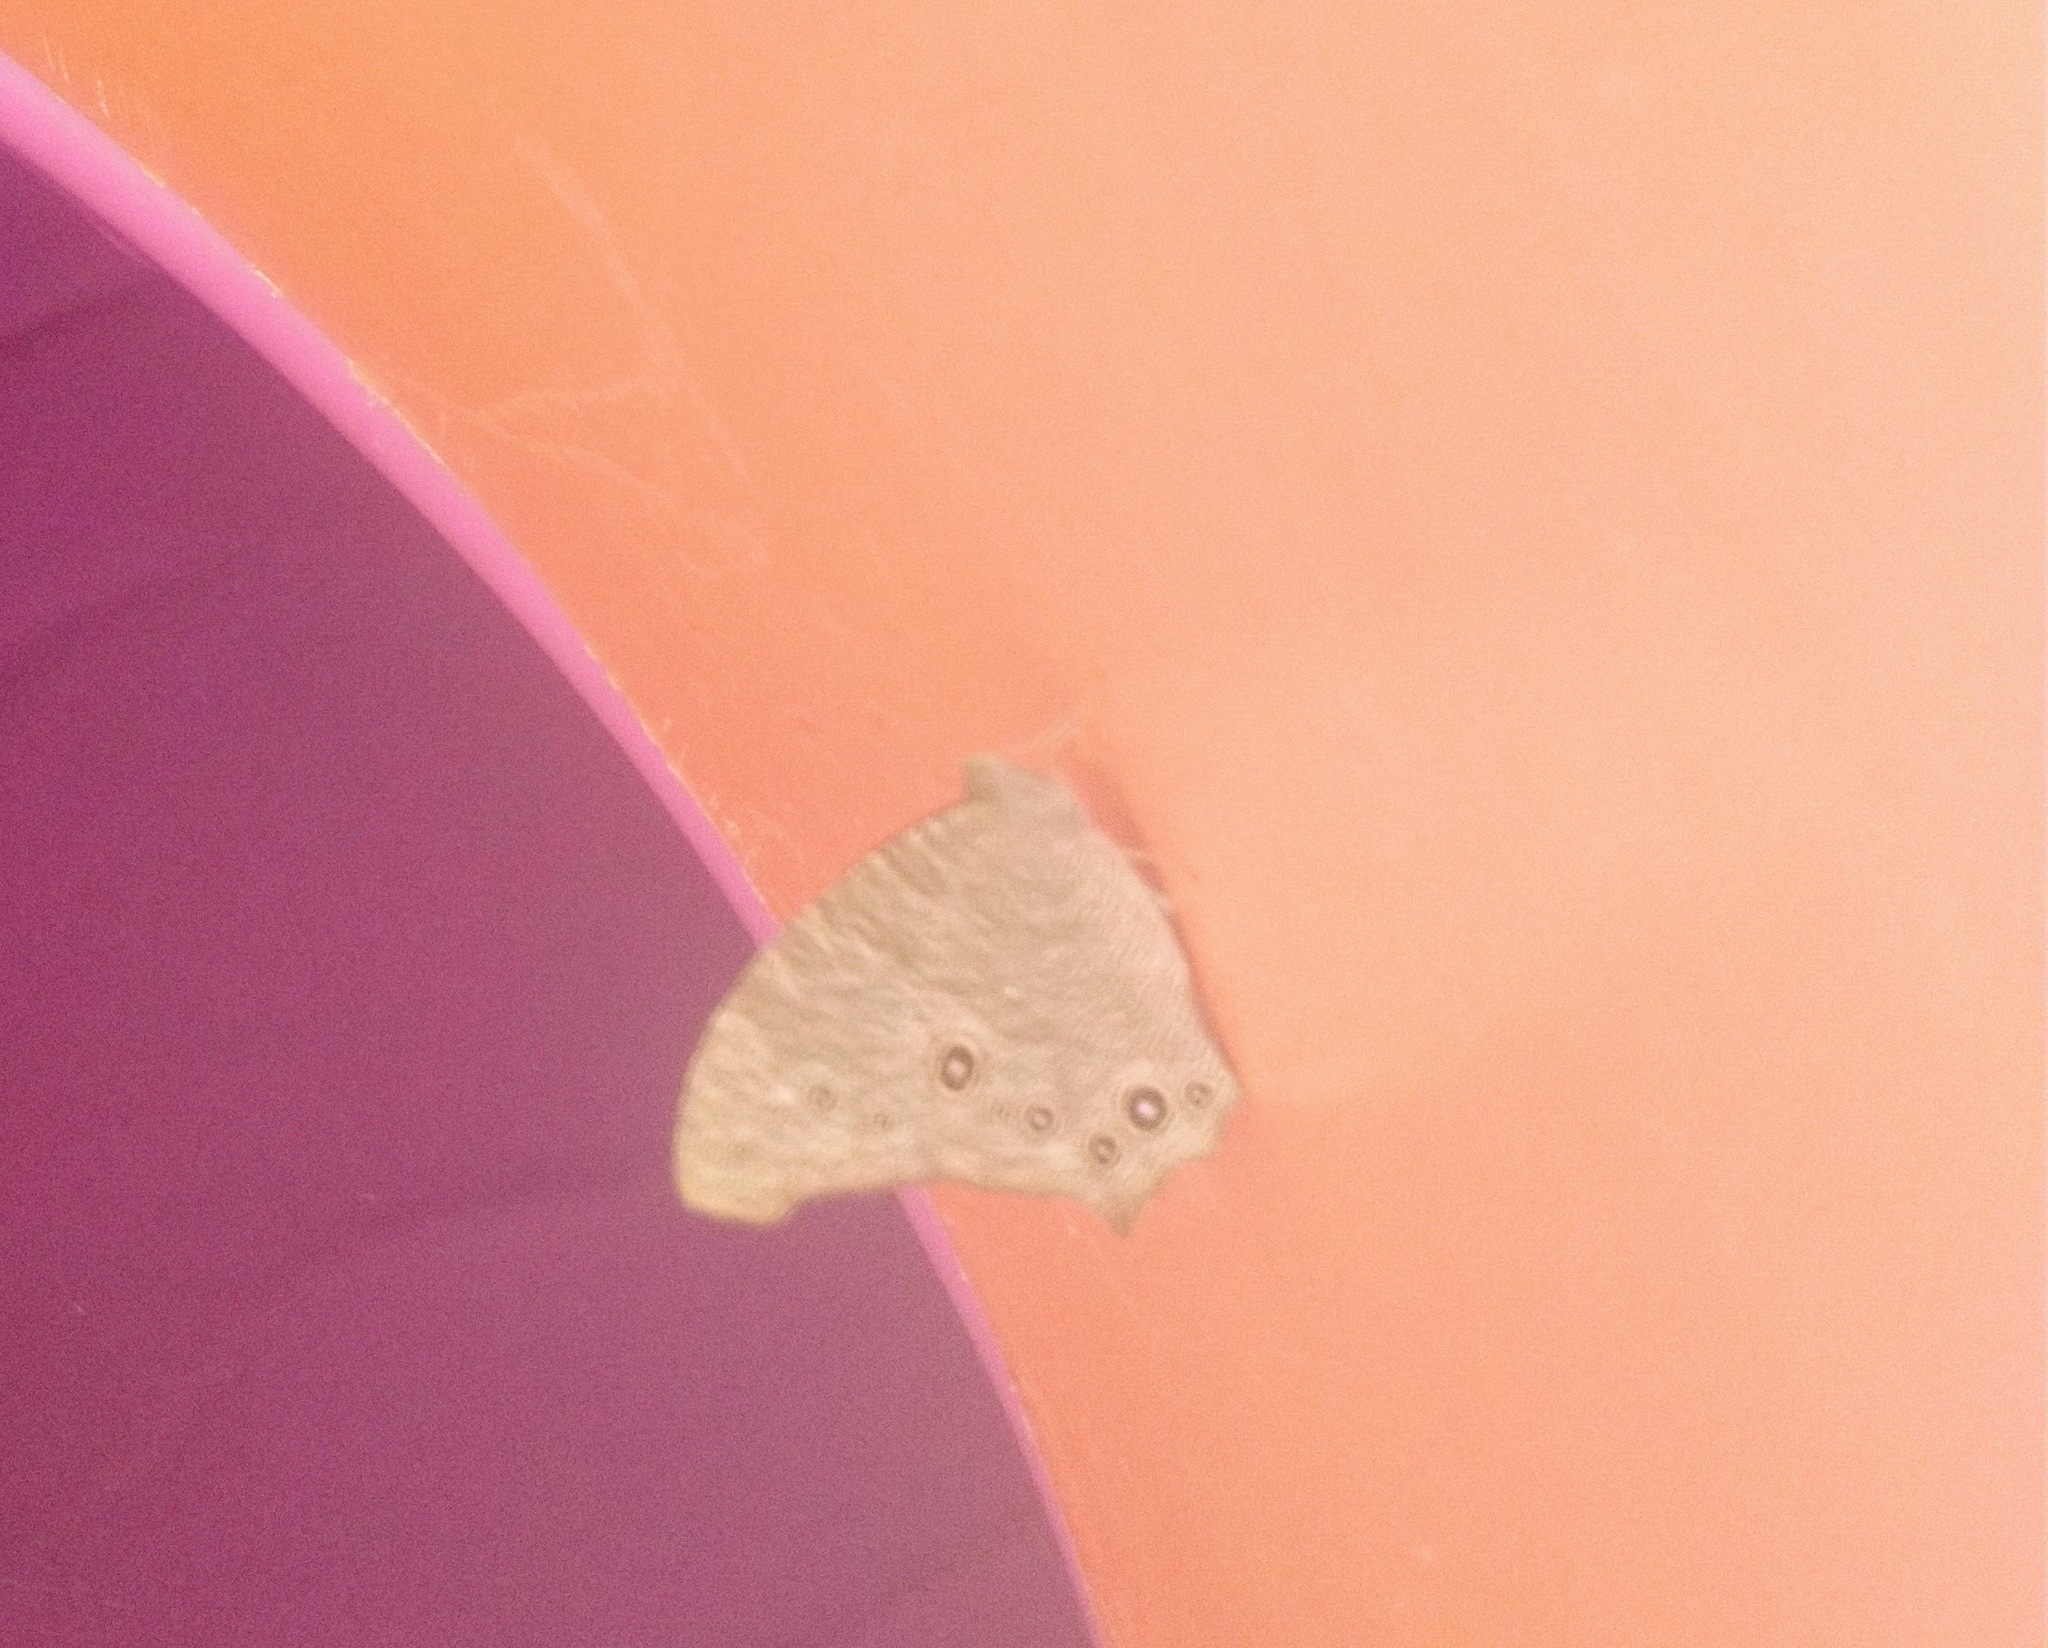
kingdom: Animalia
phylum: Arthropoda
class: Insecta
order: Lepidoptera
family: Nymphalidae
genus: Melanitis
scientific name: Melanitis leda
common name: Twilight brown
